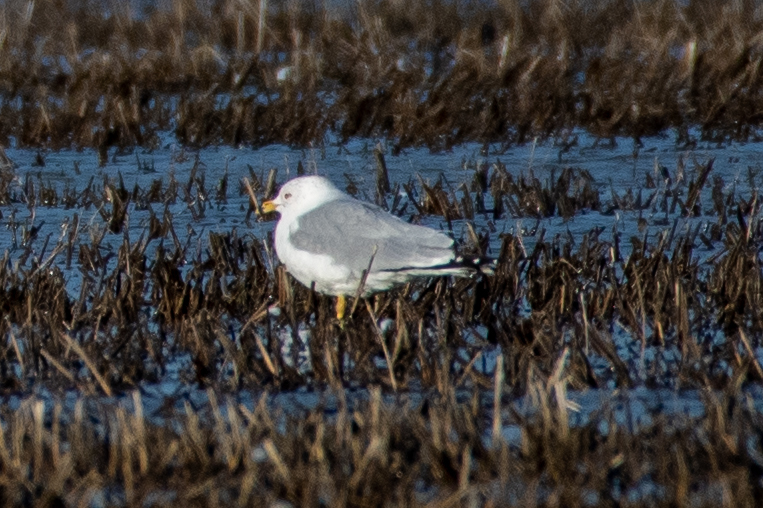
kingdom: Animalia
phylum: Chordata
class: Aves
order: Charadriiformes
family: Laridae
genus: Larus
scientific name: Larus delawarensis
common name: Ring-billed gull
